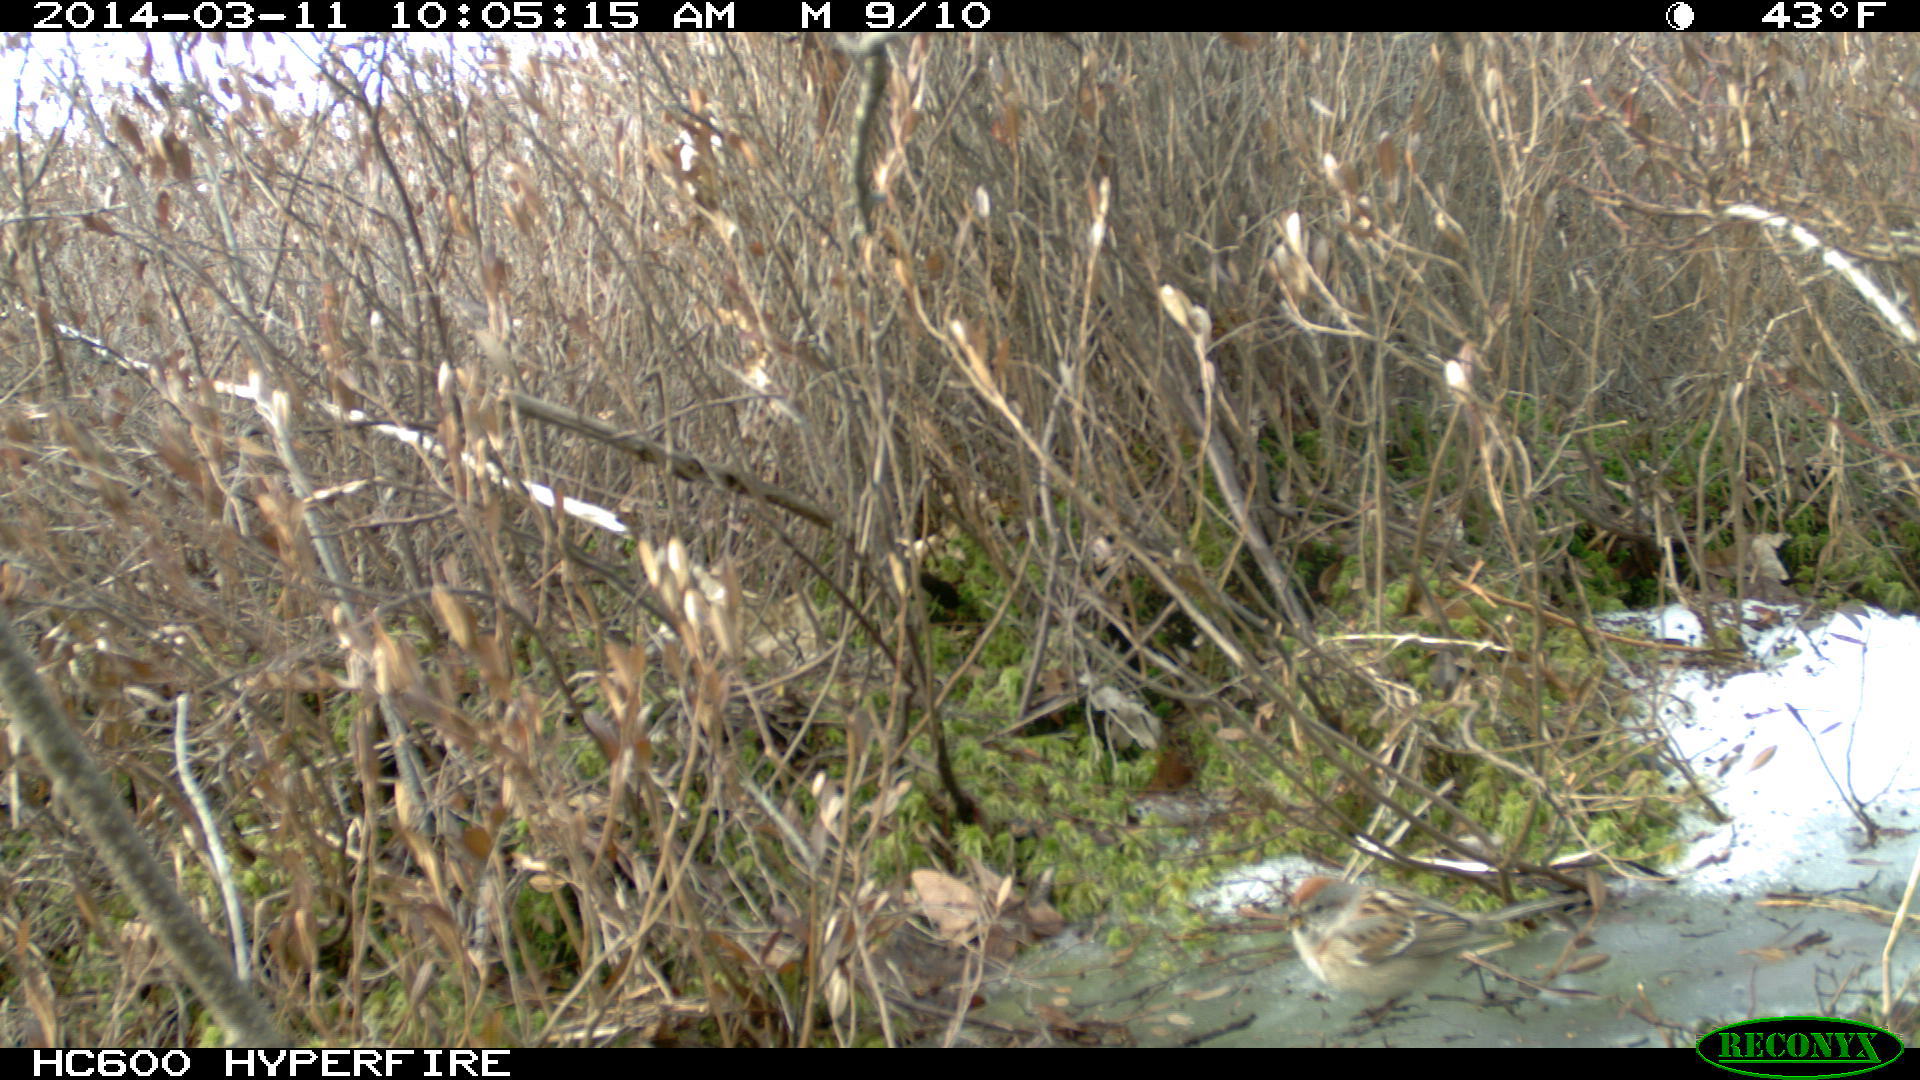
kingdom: Animalia
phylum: Chordata
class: Aves
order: Passeriformes
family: Passerellidae
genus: Spizelloides
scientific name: Spizelloides arborea
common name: American tree sparrow
